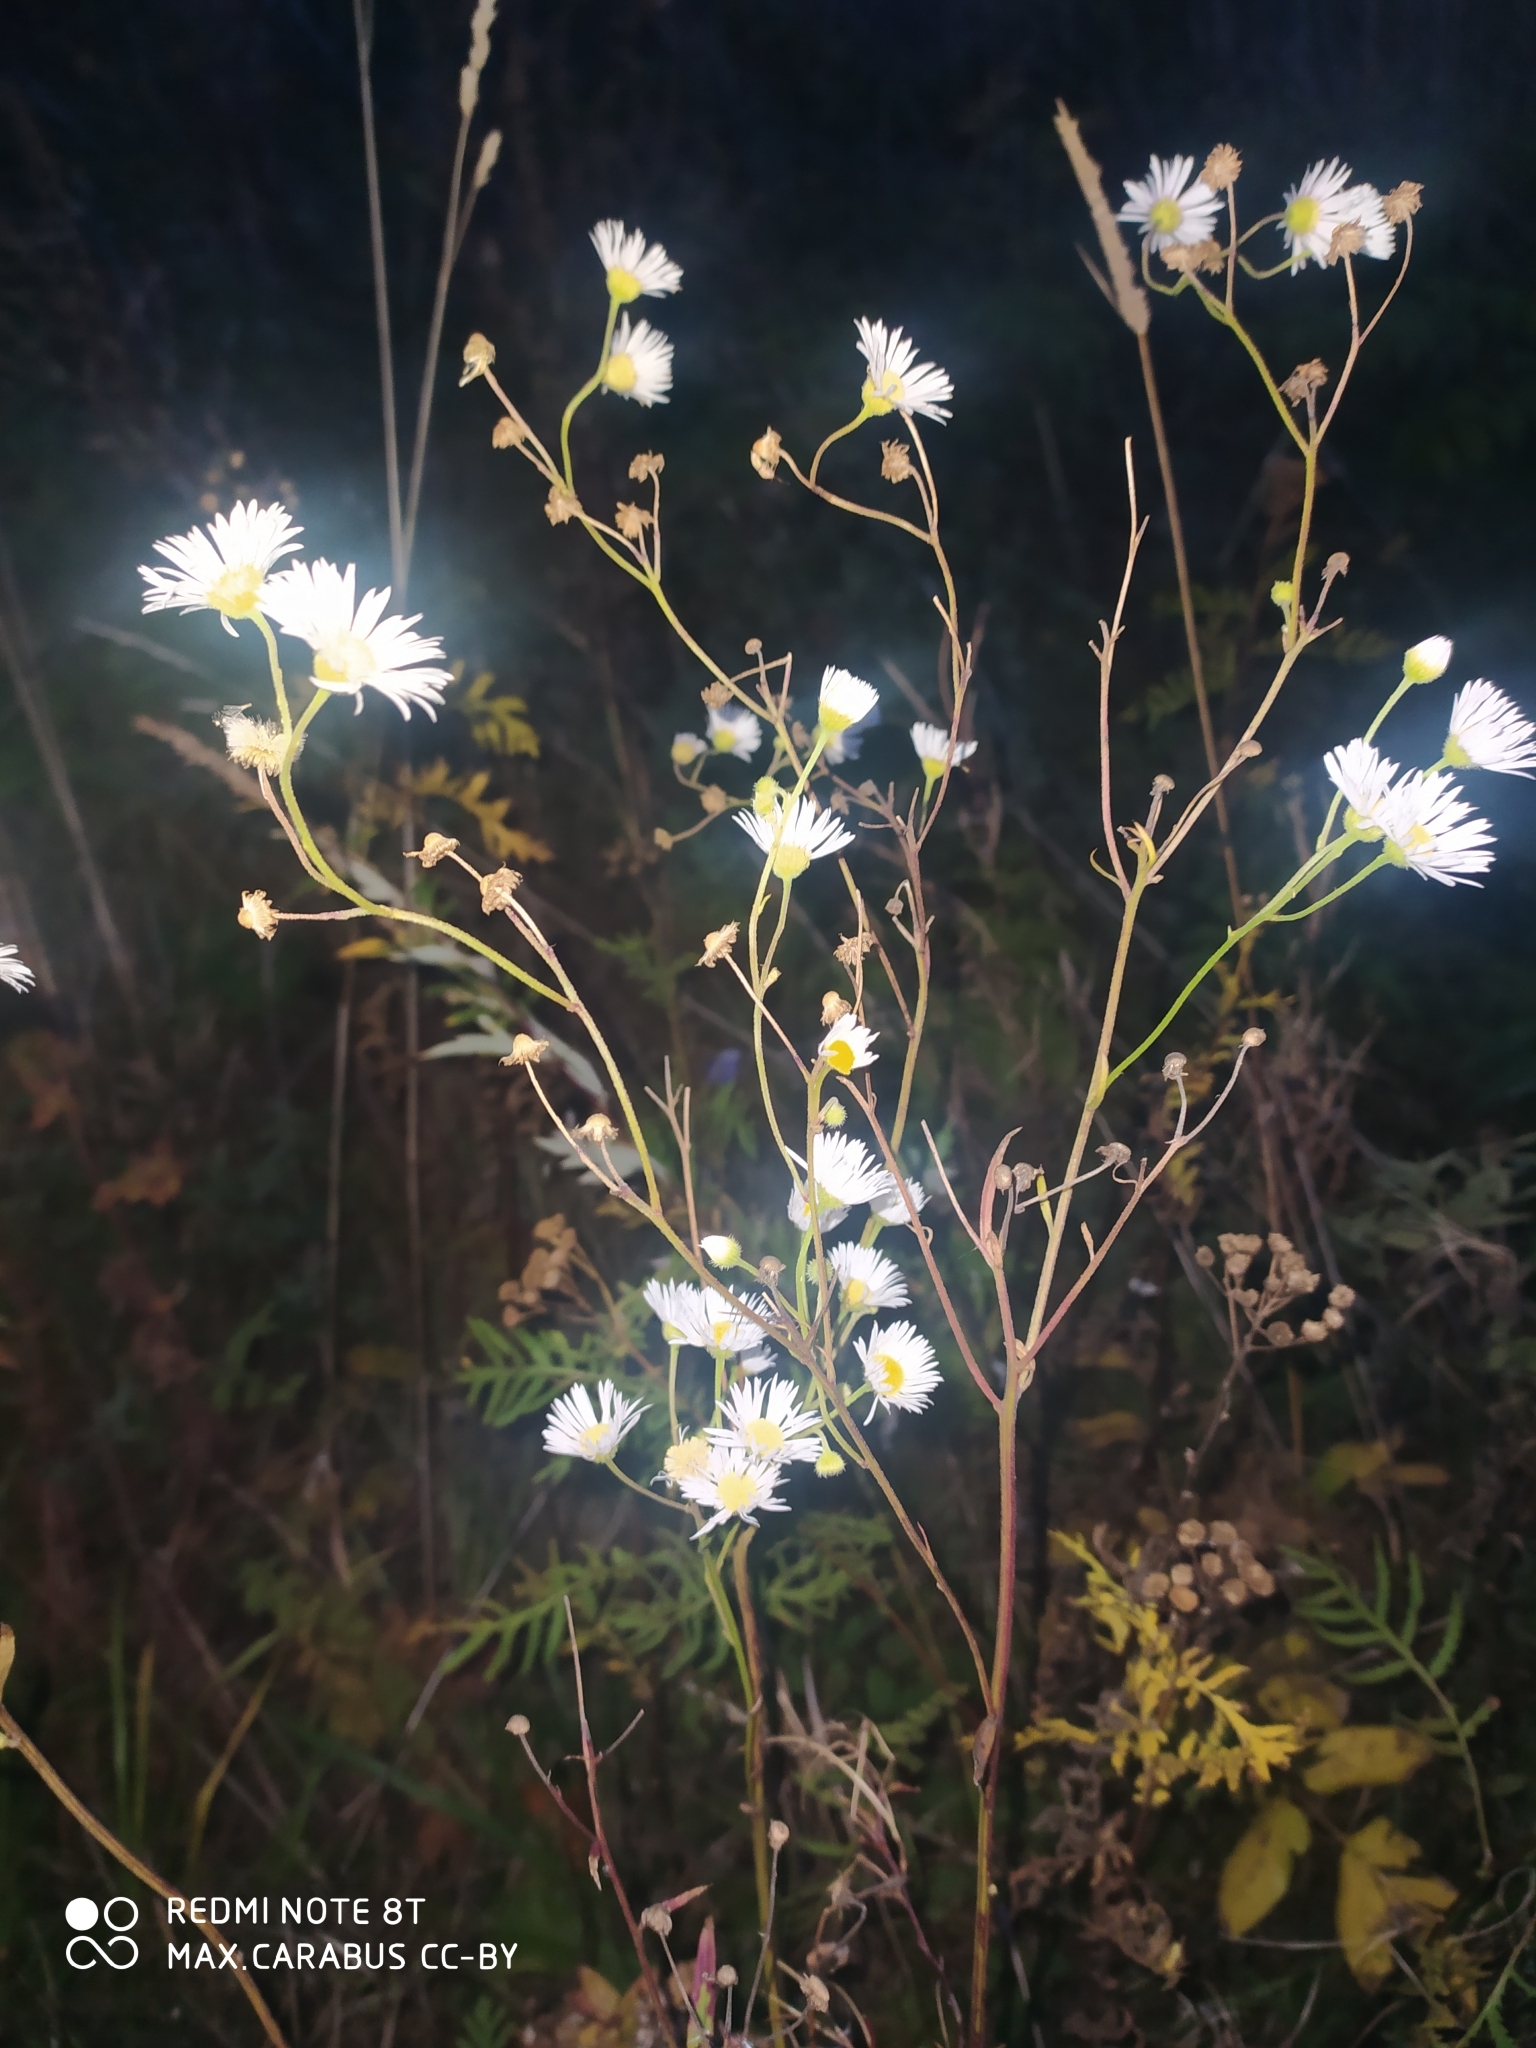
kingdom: Plantae
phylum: Tracheophyta
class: Magnoliopsida
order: Asterales
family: Asteraceae
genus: Erigeron
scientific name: Erigeron annuus
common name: Tall fleabane
